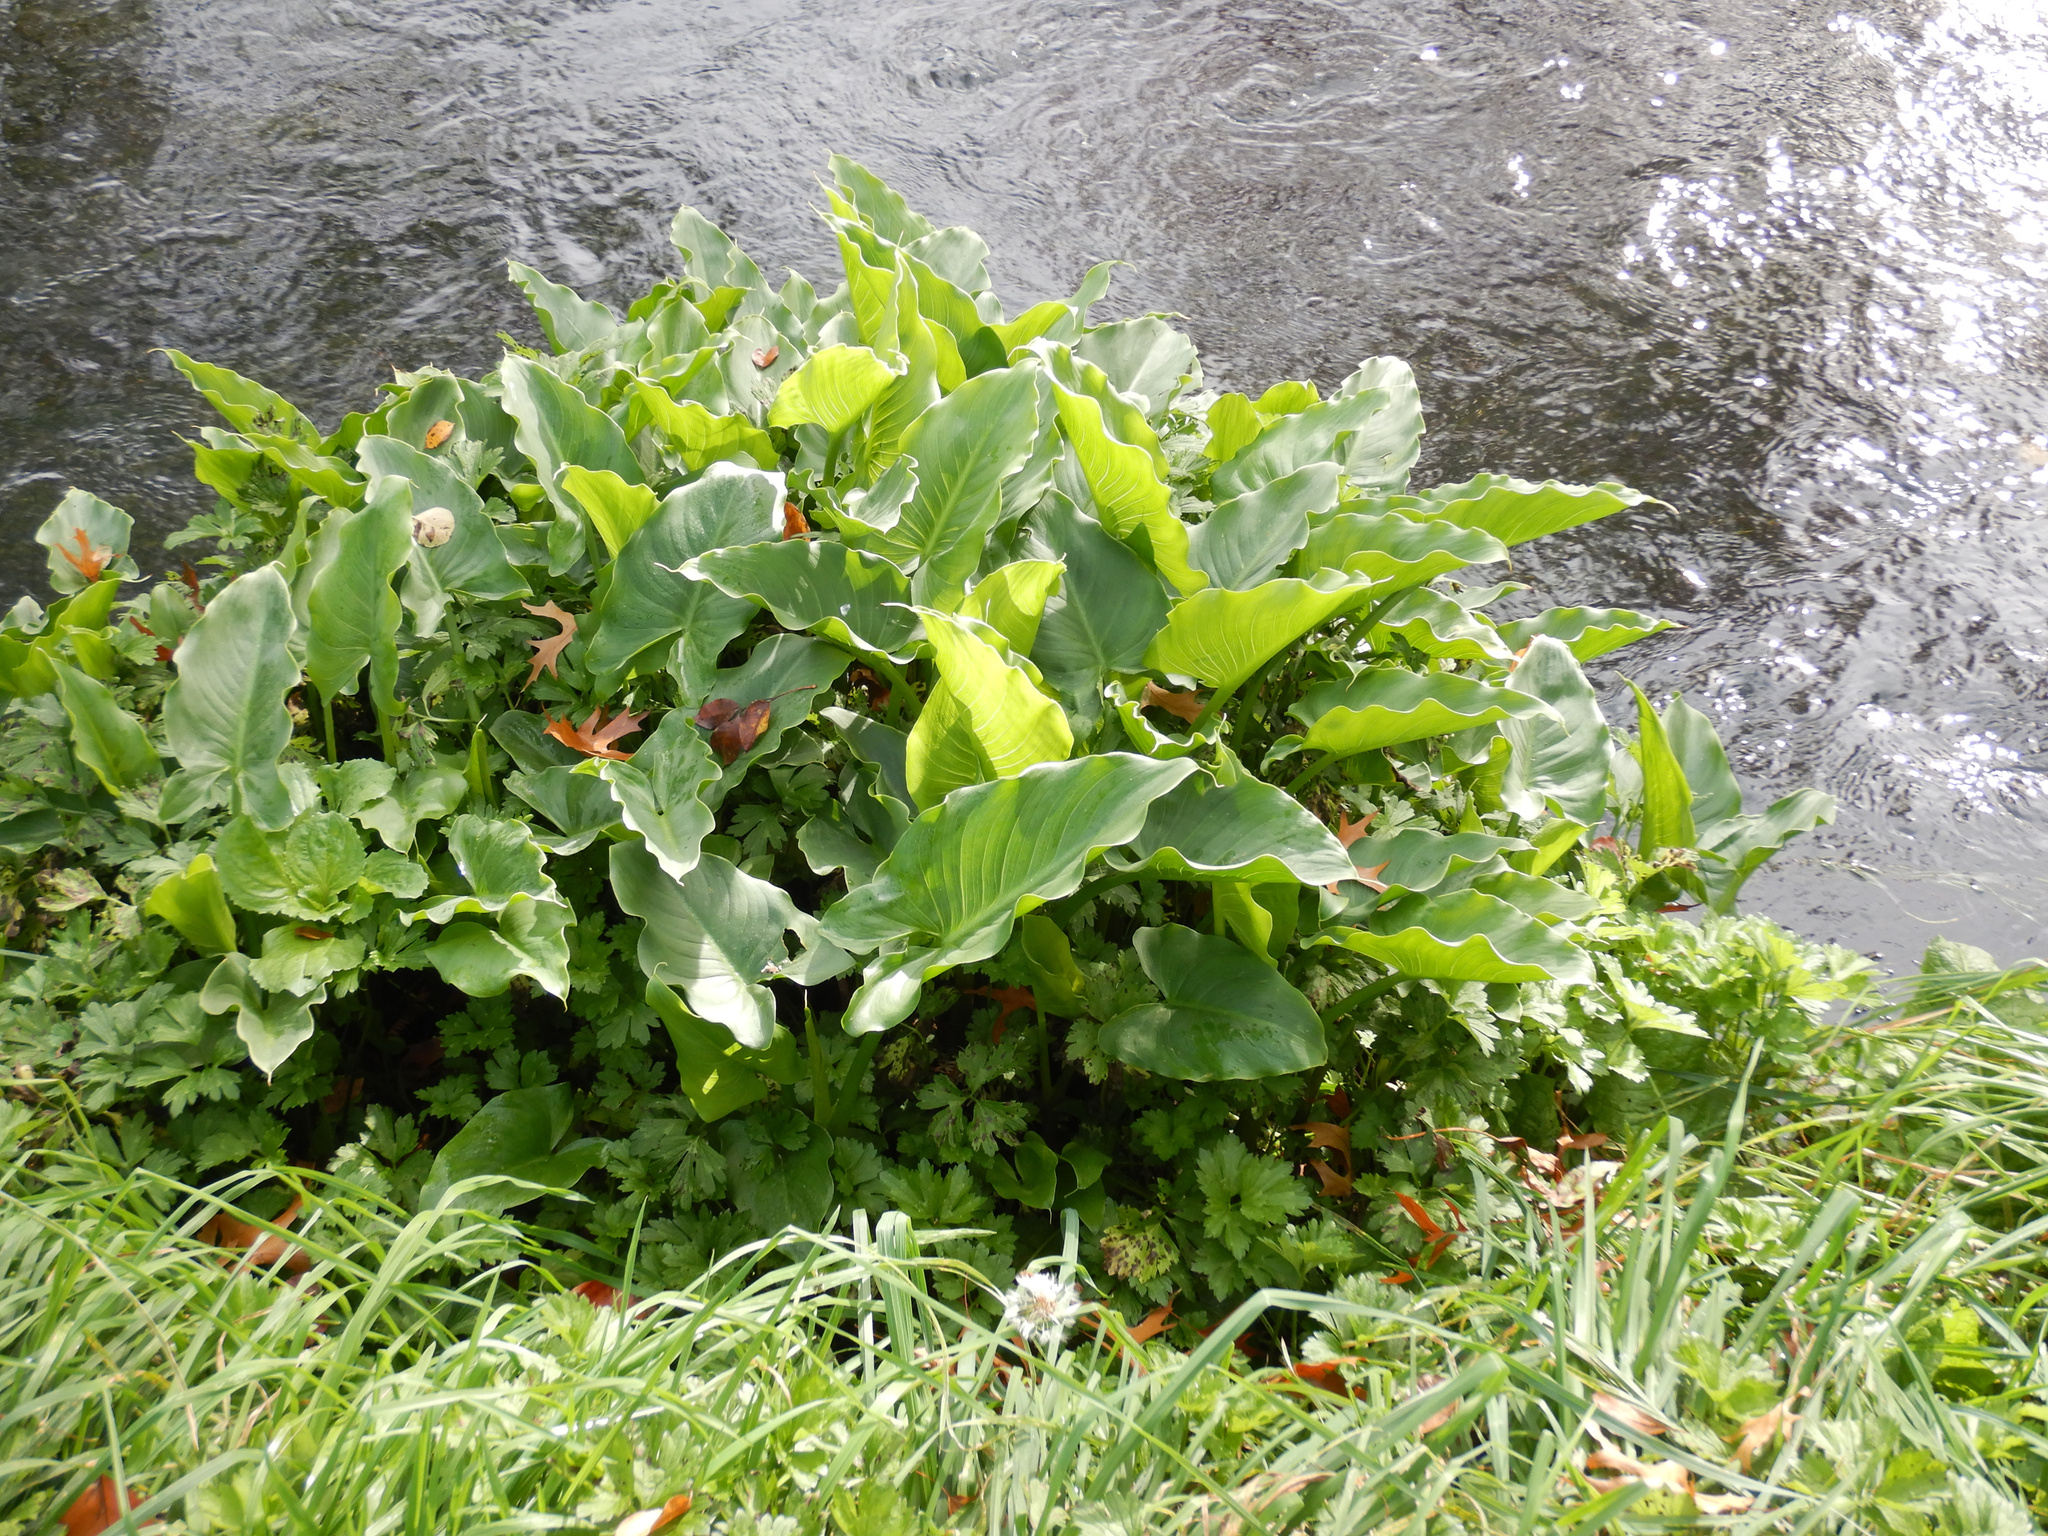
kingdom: Plantae
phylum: Tracheophyta
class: Liliopsida
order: Alismatales
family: Araceae
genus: Zantedeschia
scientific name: Zantedeschia aethiopica
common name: Altar-lily
